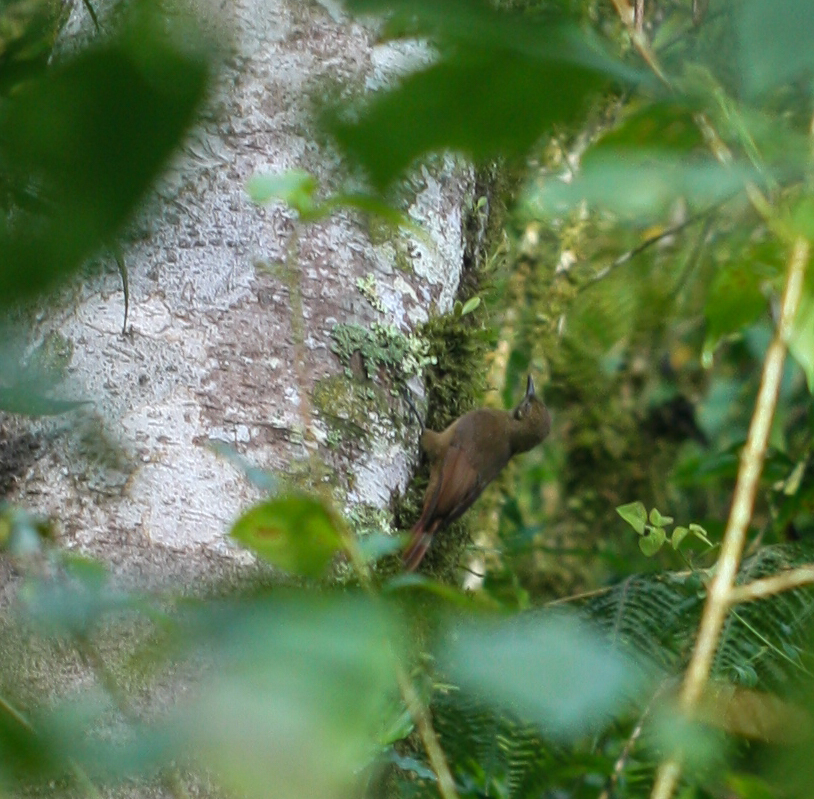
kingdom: Animalia
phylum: Chordata
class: Aves
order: Passeriformes
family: Furnariidae
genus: Dendrocincla
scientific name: Dendrocincla fuliginosa
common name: Plain-brown woodcreeper
